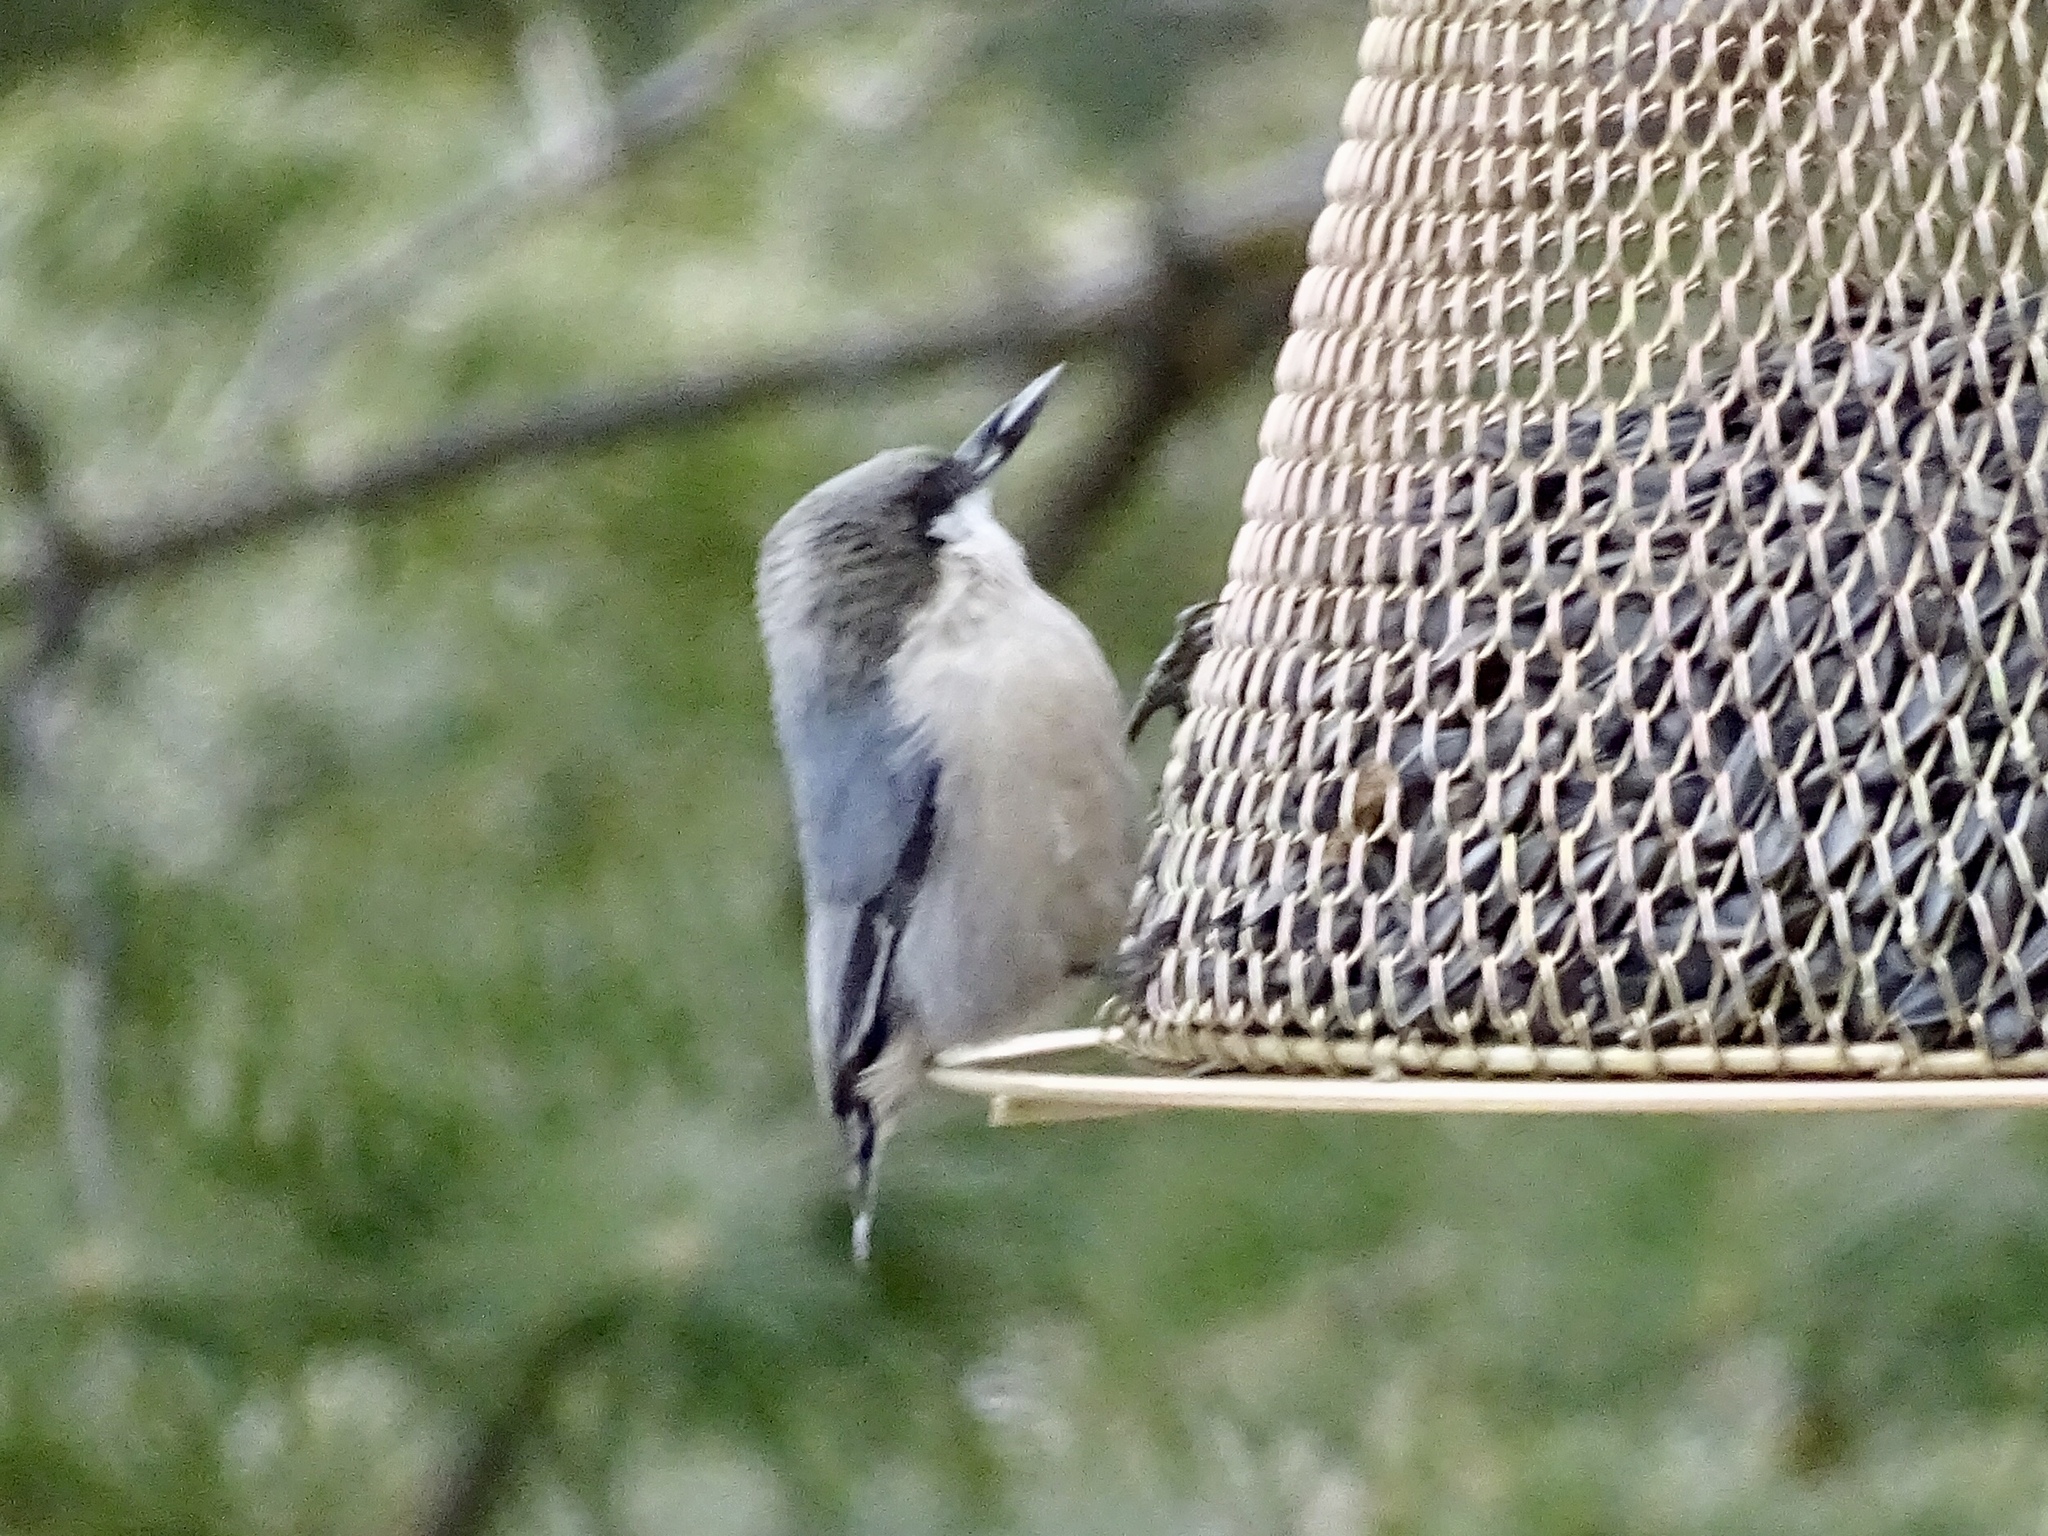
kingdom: Animalia
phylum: Chordata
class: Aves
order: Passeriformes
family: Sittidae
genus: Sitta
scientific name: Sitta pygmaea
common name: Pygmy nuthatch
